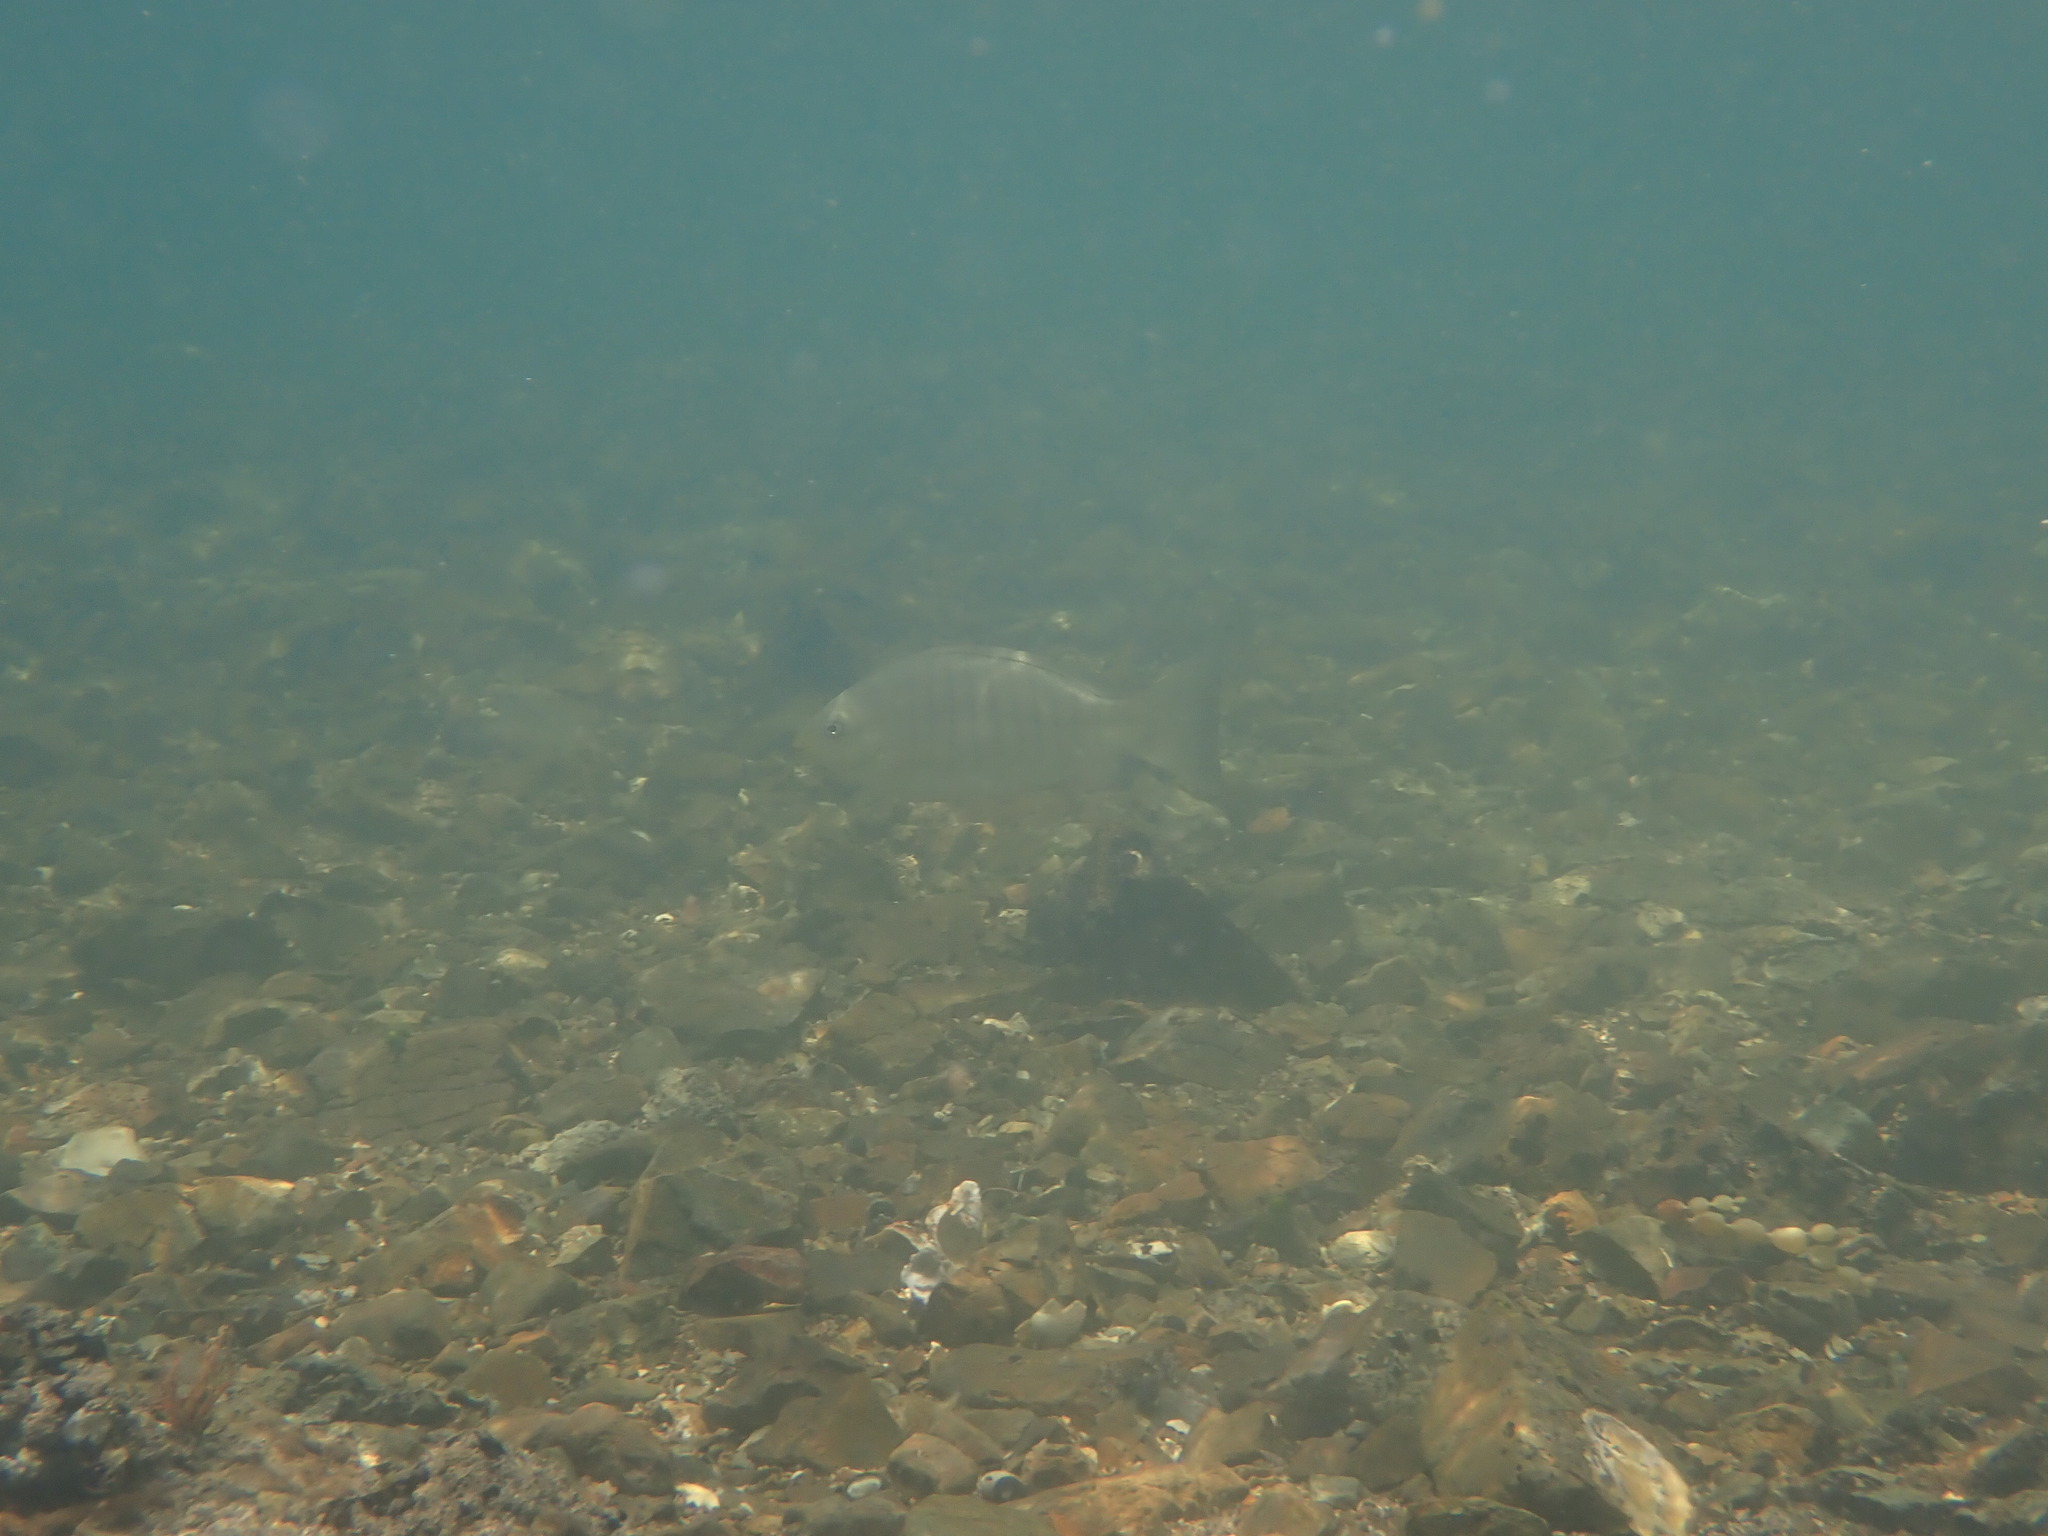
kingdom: Animalia
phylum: Chordata
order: Perciformes
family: Kyphosidae
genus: Girella
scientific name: Girella tricuspidata
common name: Parore
